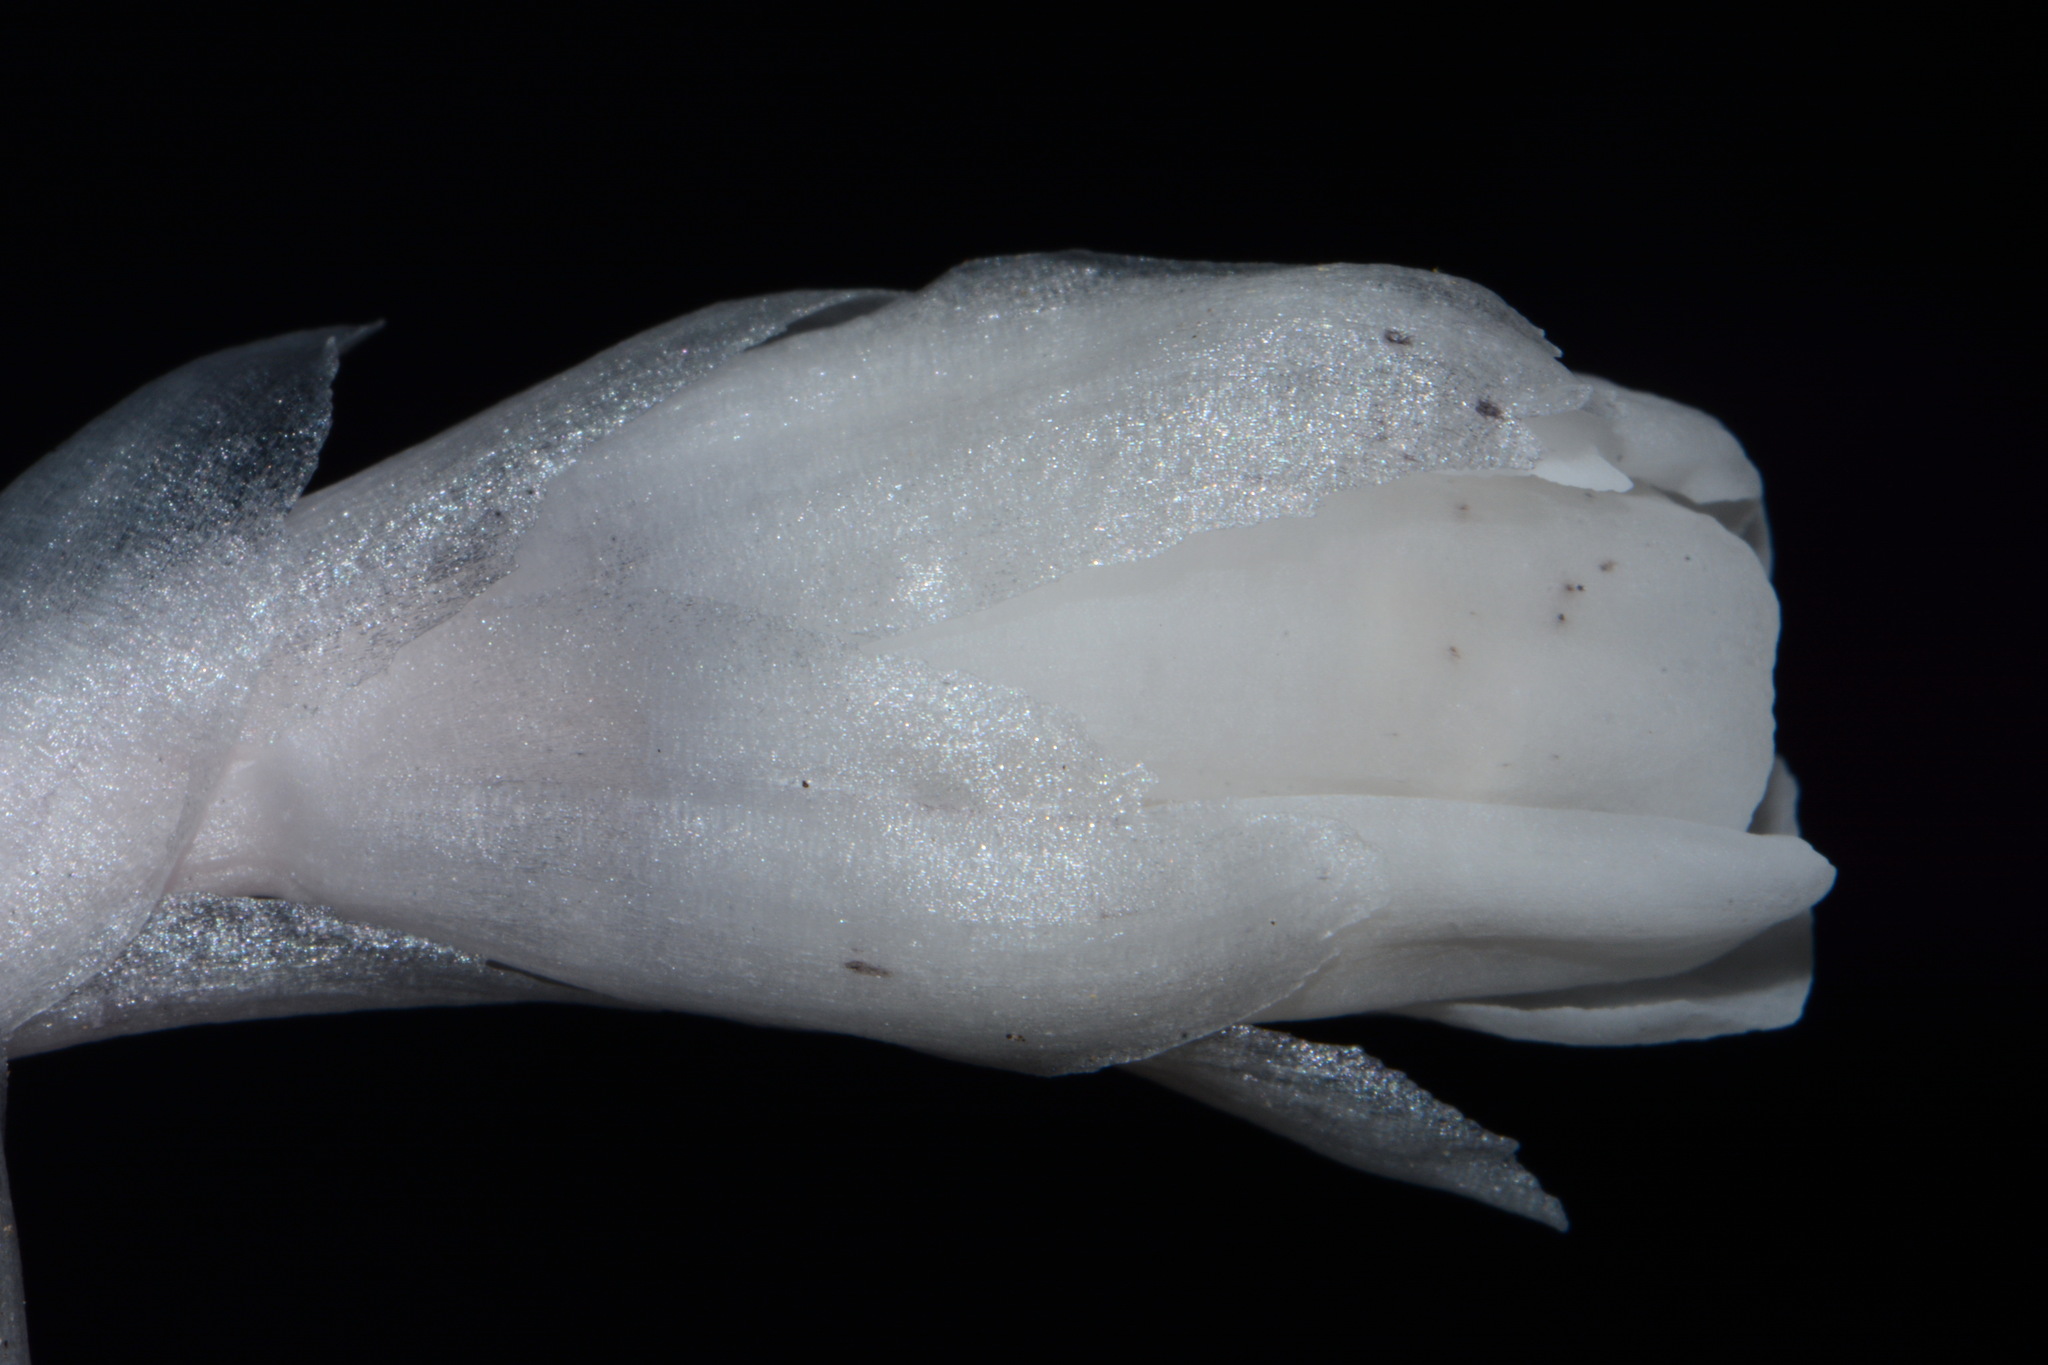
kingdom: Plantae
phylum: Tracheophyta
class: Magnoliopsida
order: Ericales
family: Ericaceae
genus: Monotropa
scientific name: Monotropa uniflora
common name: Convulsion root
